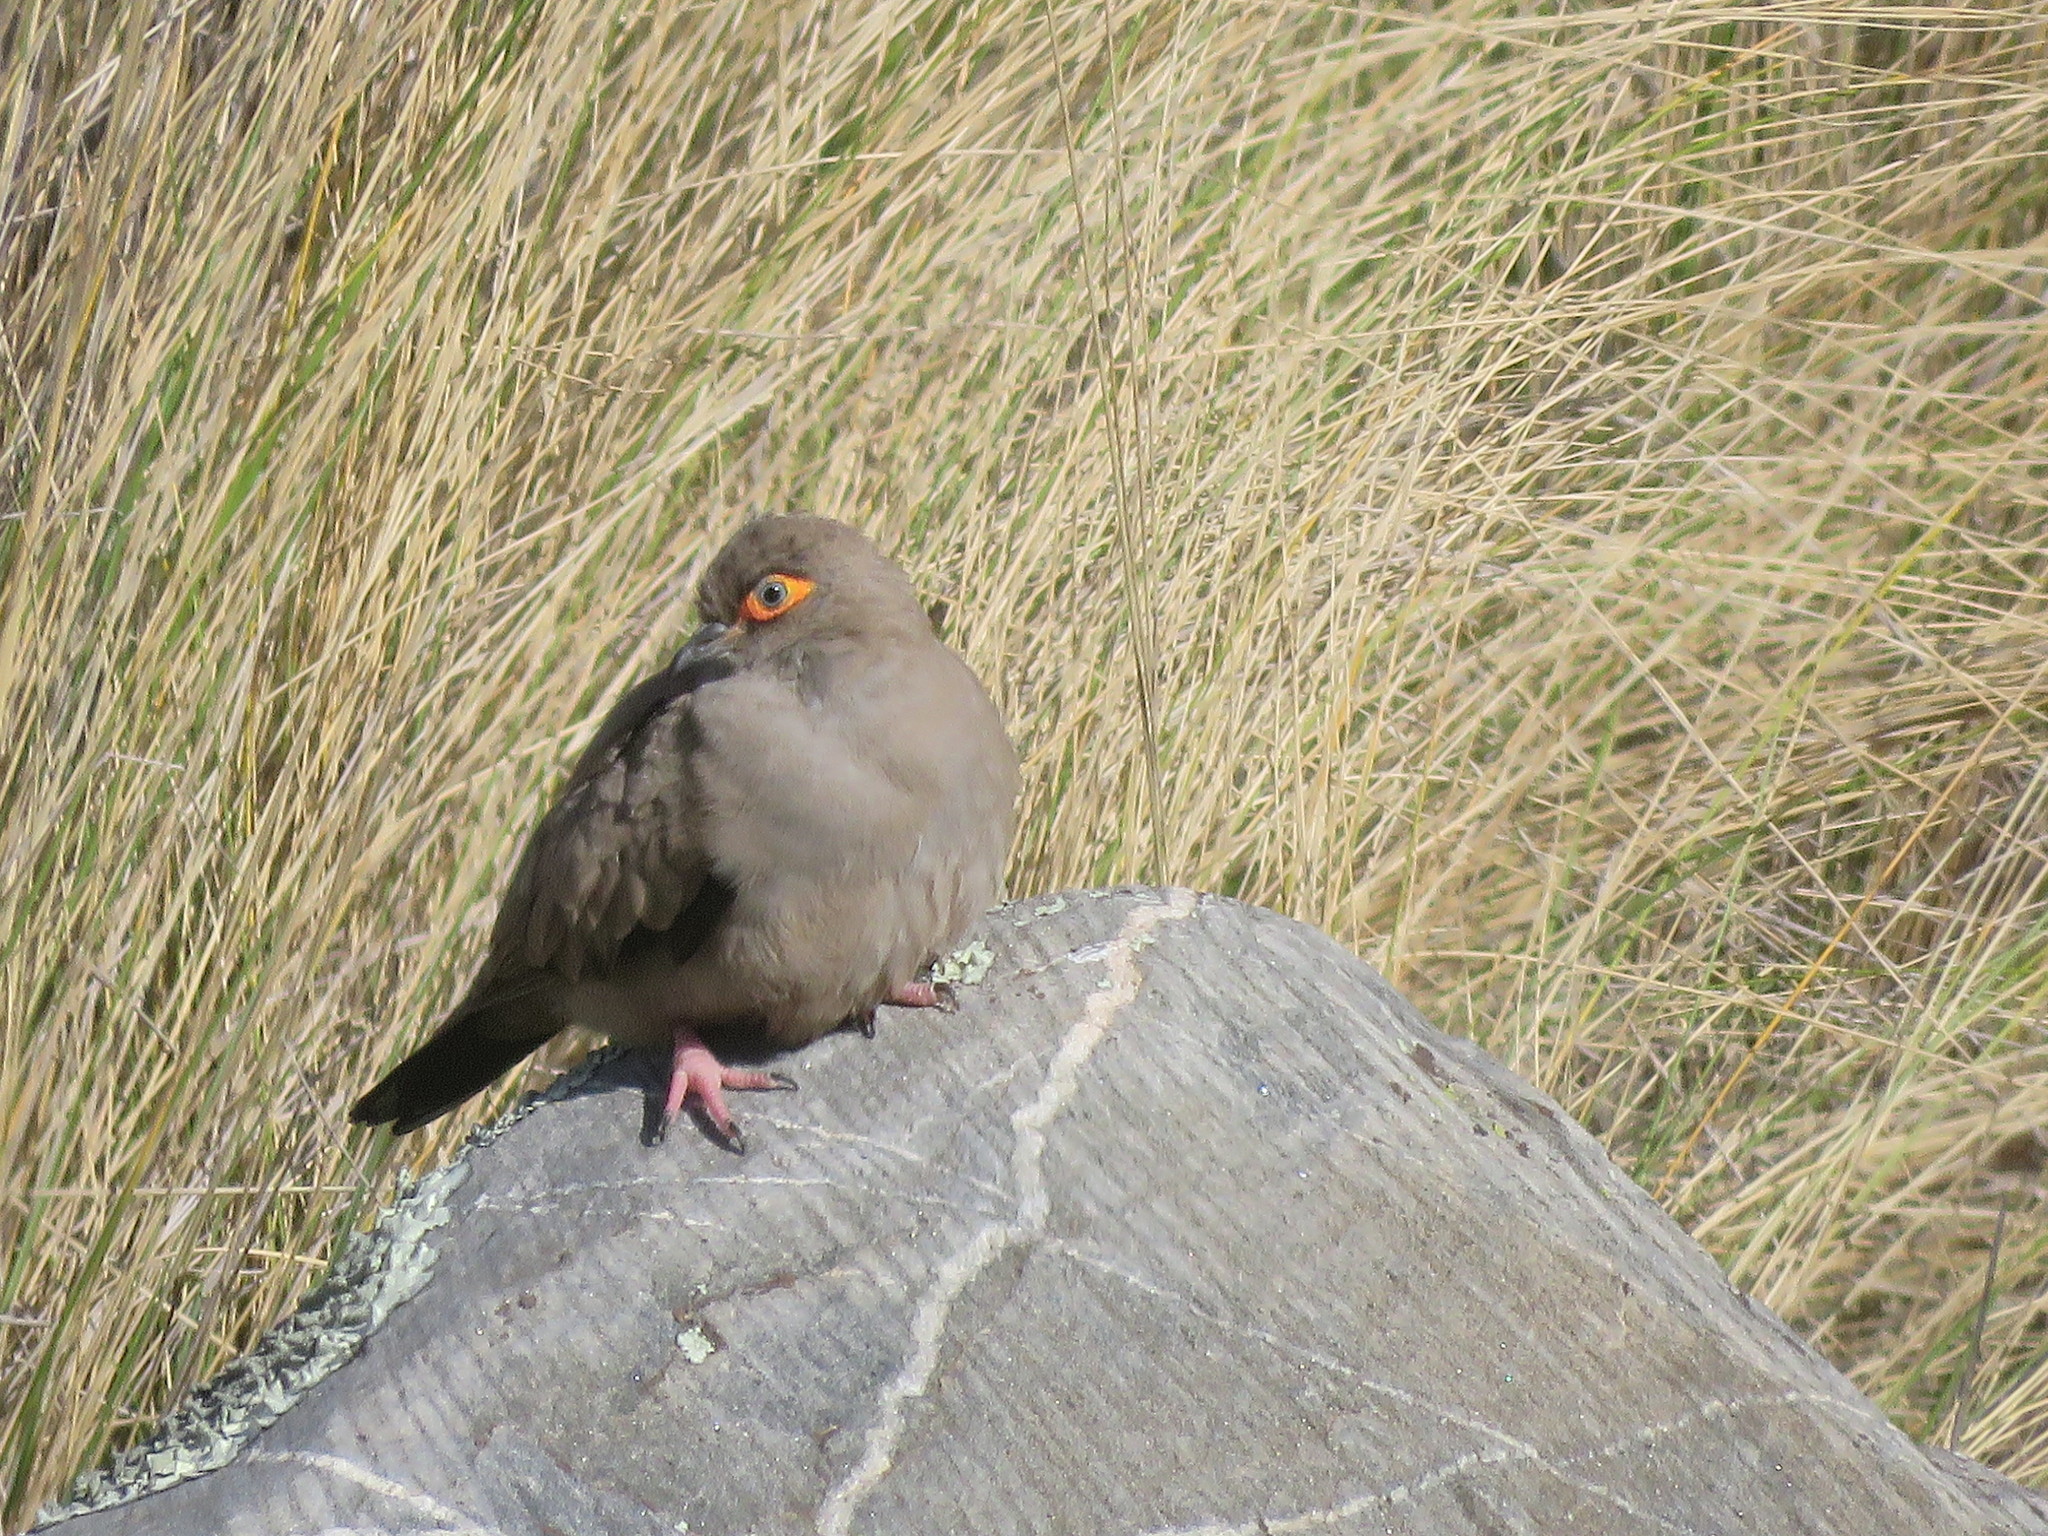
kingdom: Animalia
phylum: Chordata
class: Aves
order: Columbiformes
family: Columbidae
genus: Metriopelia
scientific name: Metriopelia morenoi
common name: Moreno's ground dove
